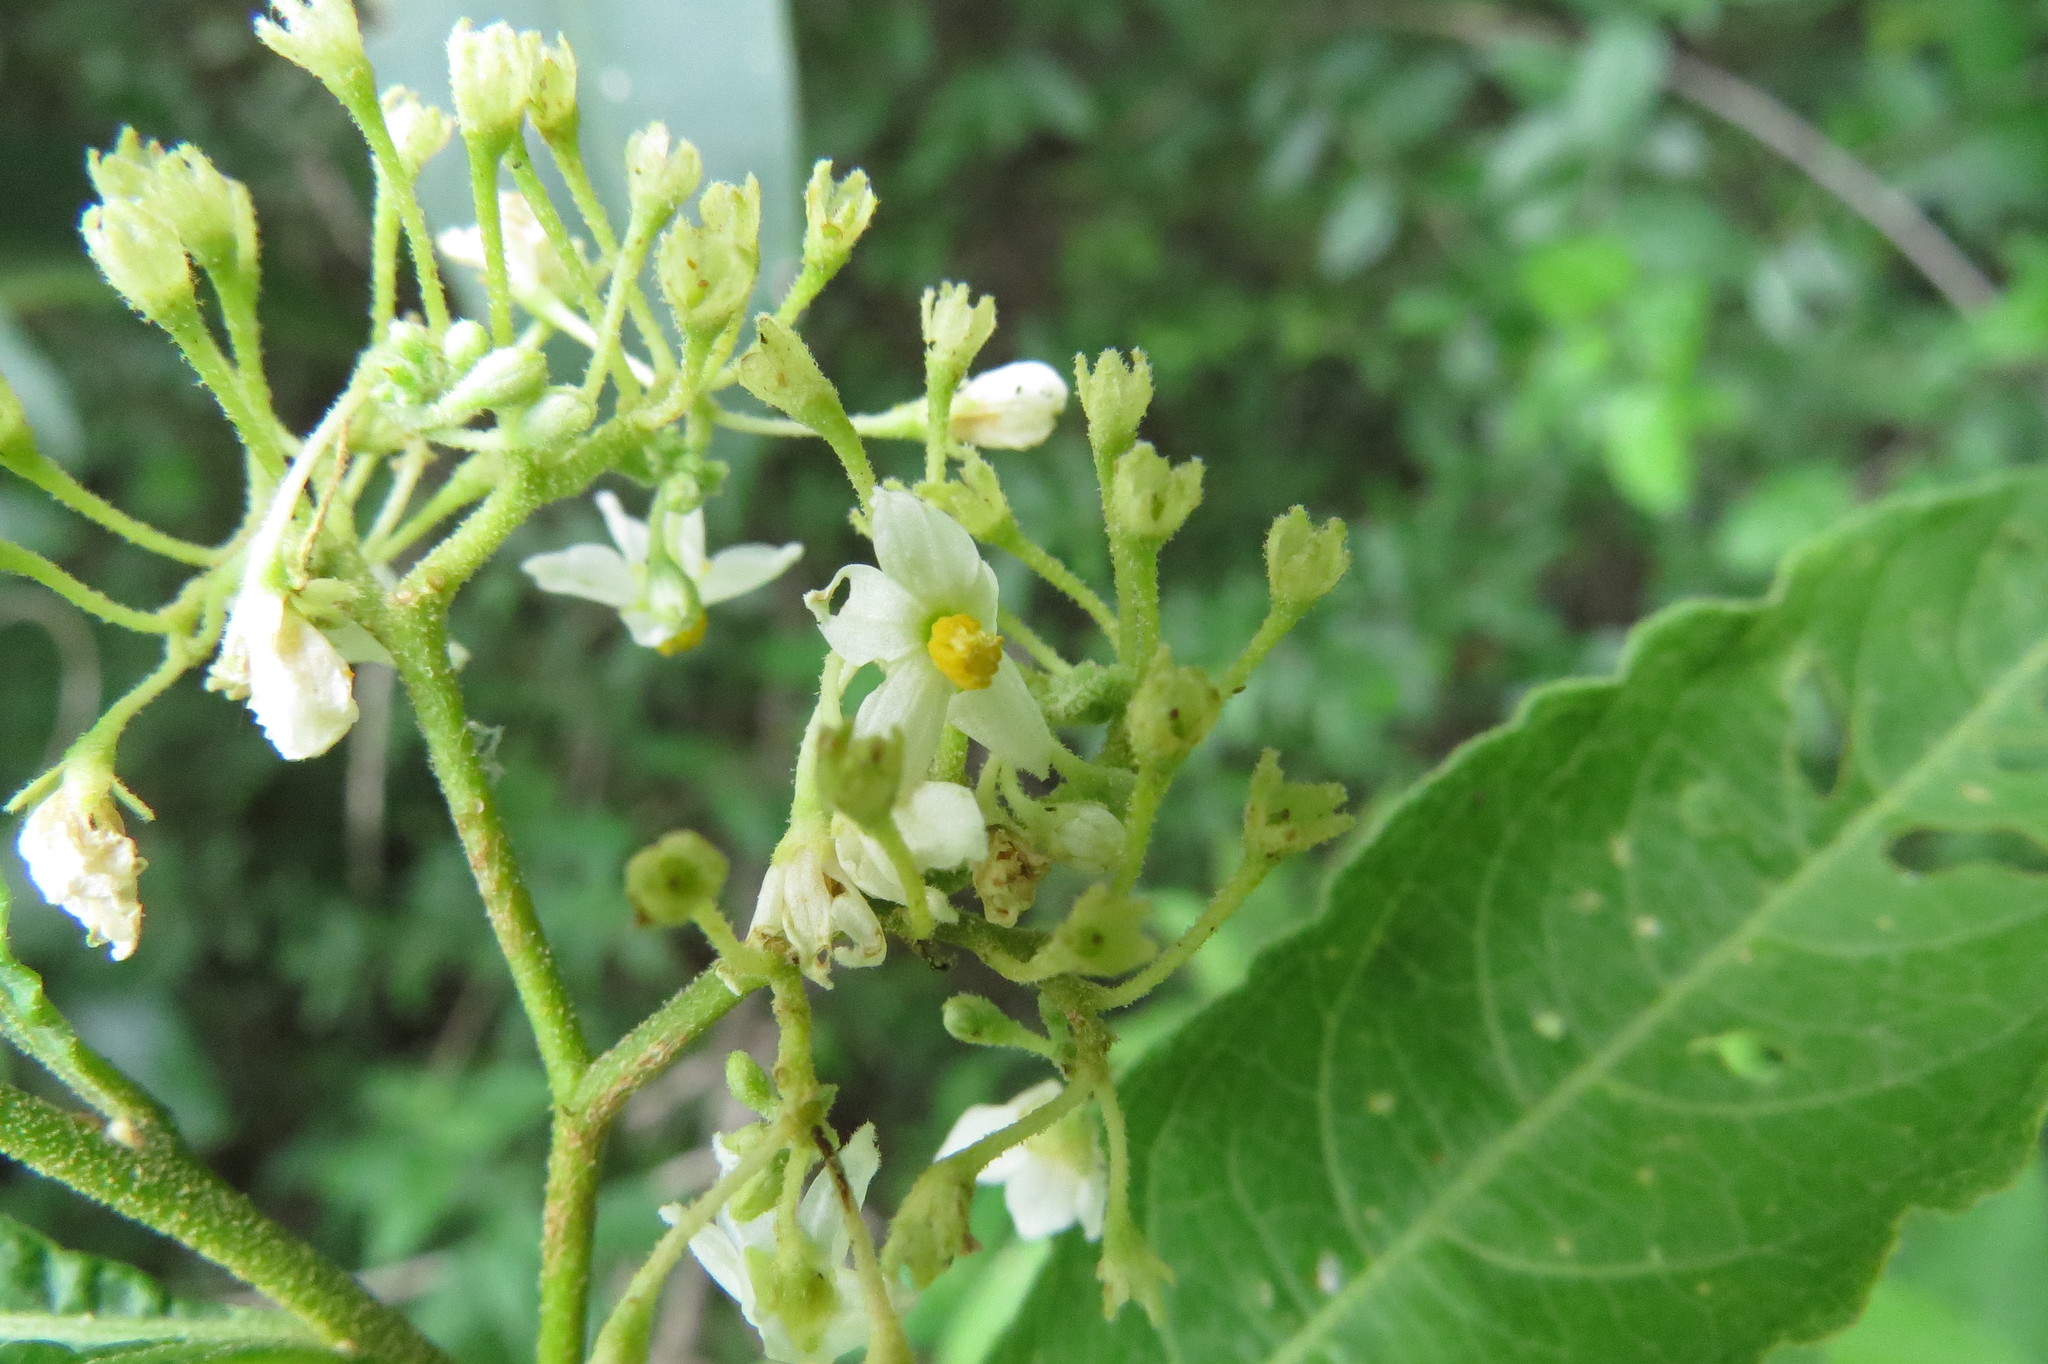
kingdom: Plantae
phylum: Tracheophyta
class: Magnoliopsida
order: Solanales
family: Solanaceae
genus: Solanum
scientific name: Solanum argentinum
